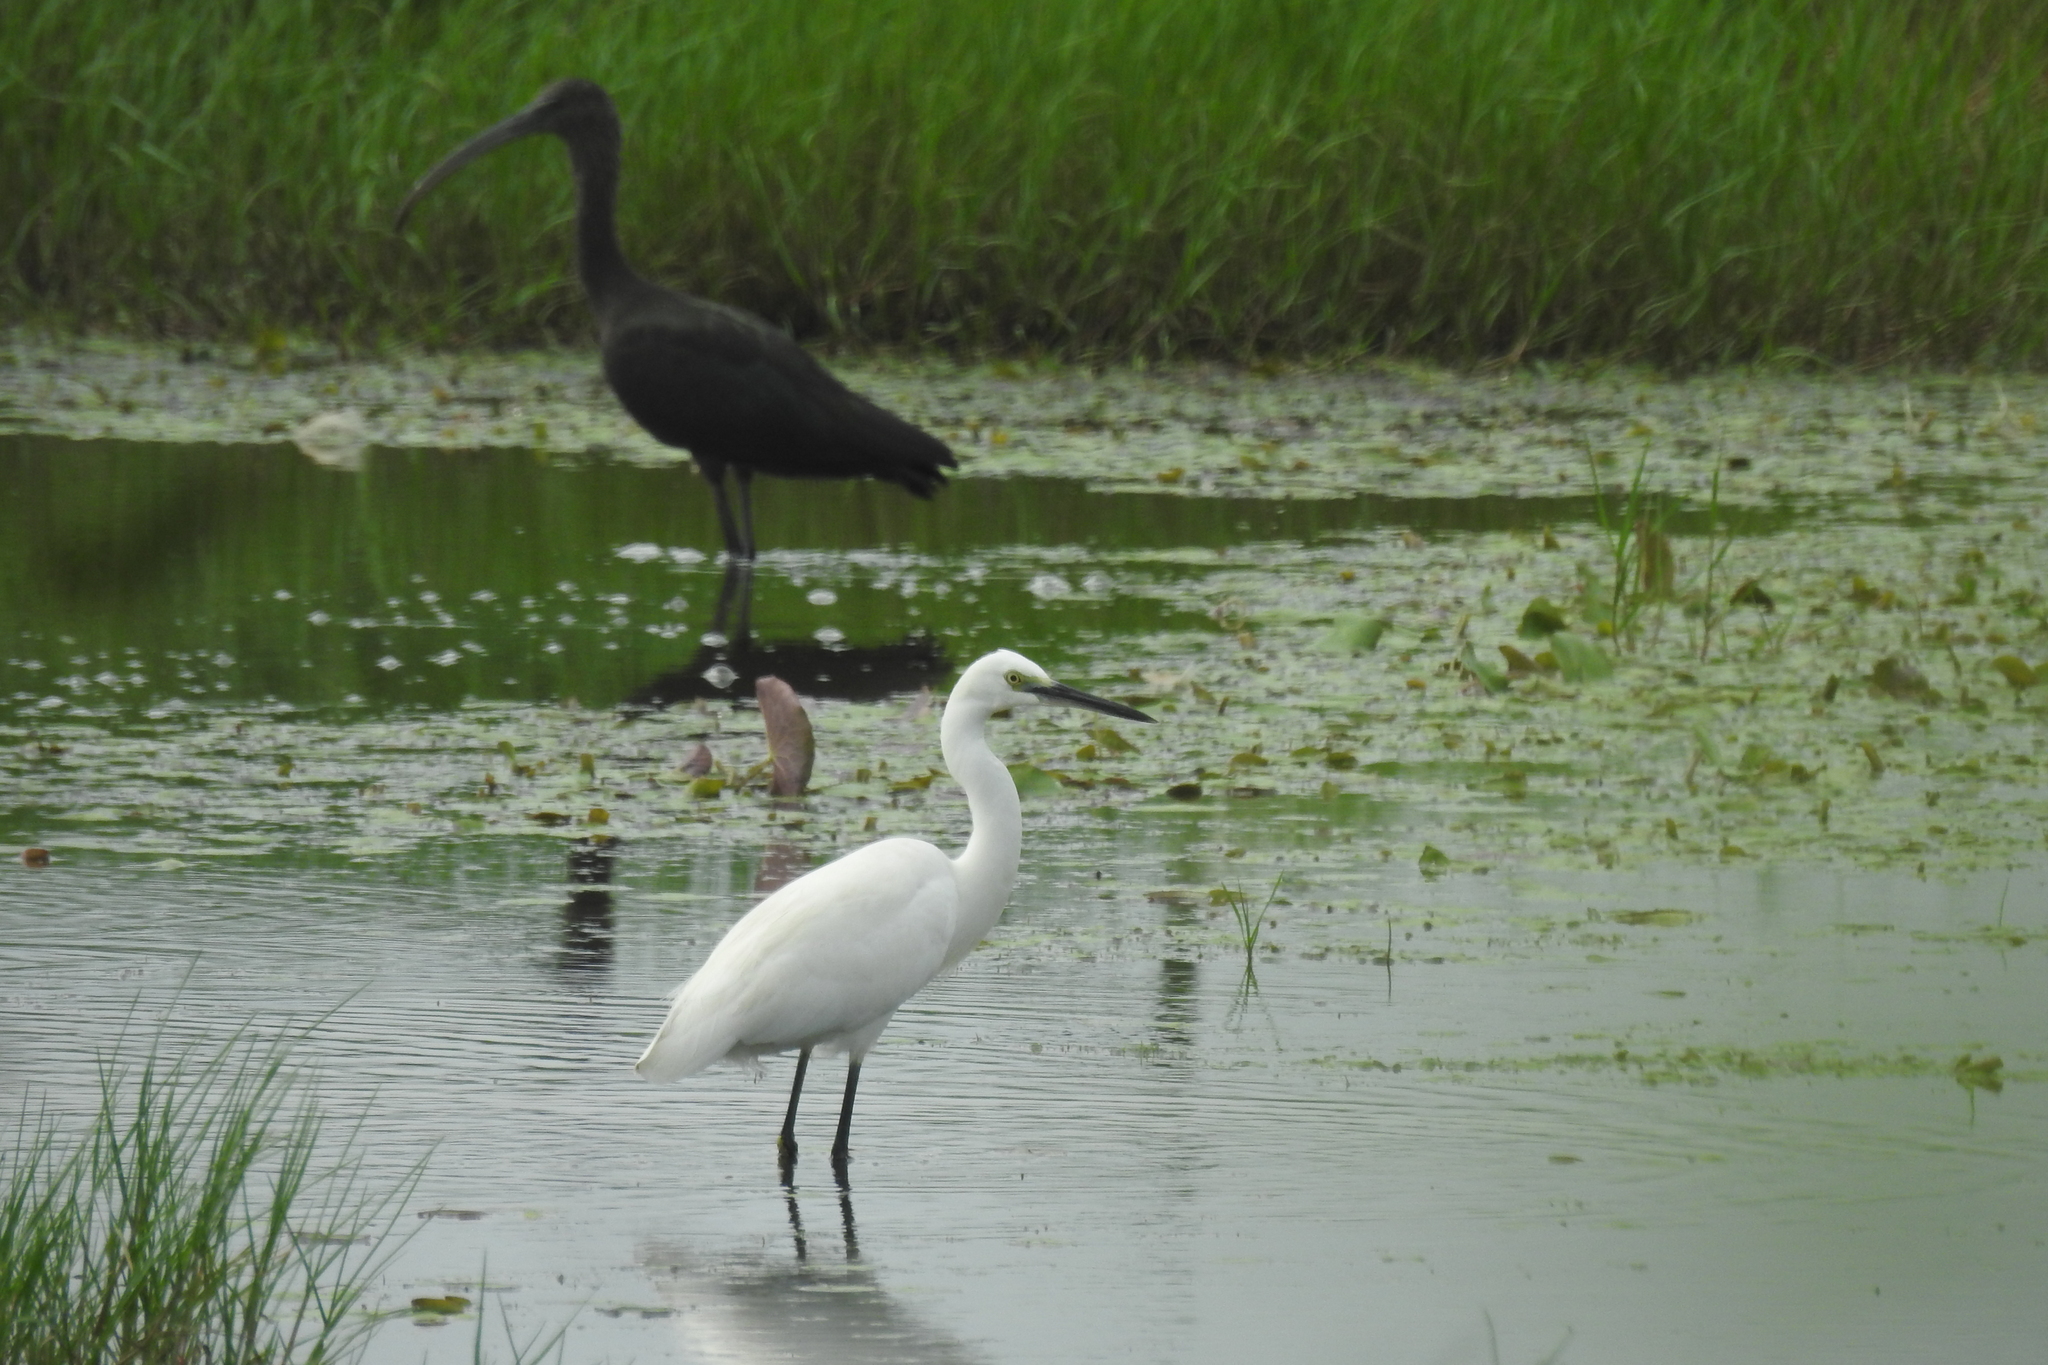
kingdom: Animalia
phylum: Chordata
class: Aves
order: Pelecaniformes
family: Ardeidae
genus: Egretta
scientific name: Egretta garzetta
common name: Little egret
